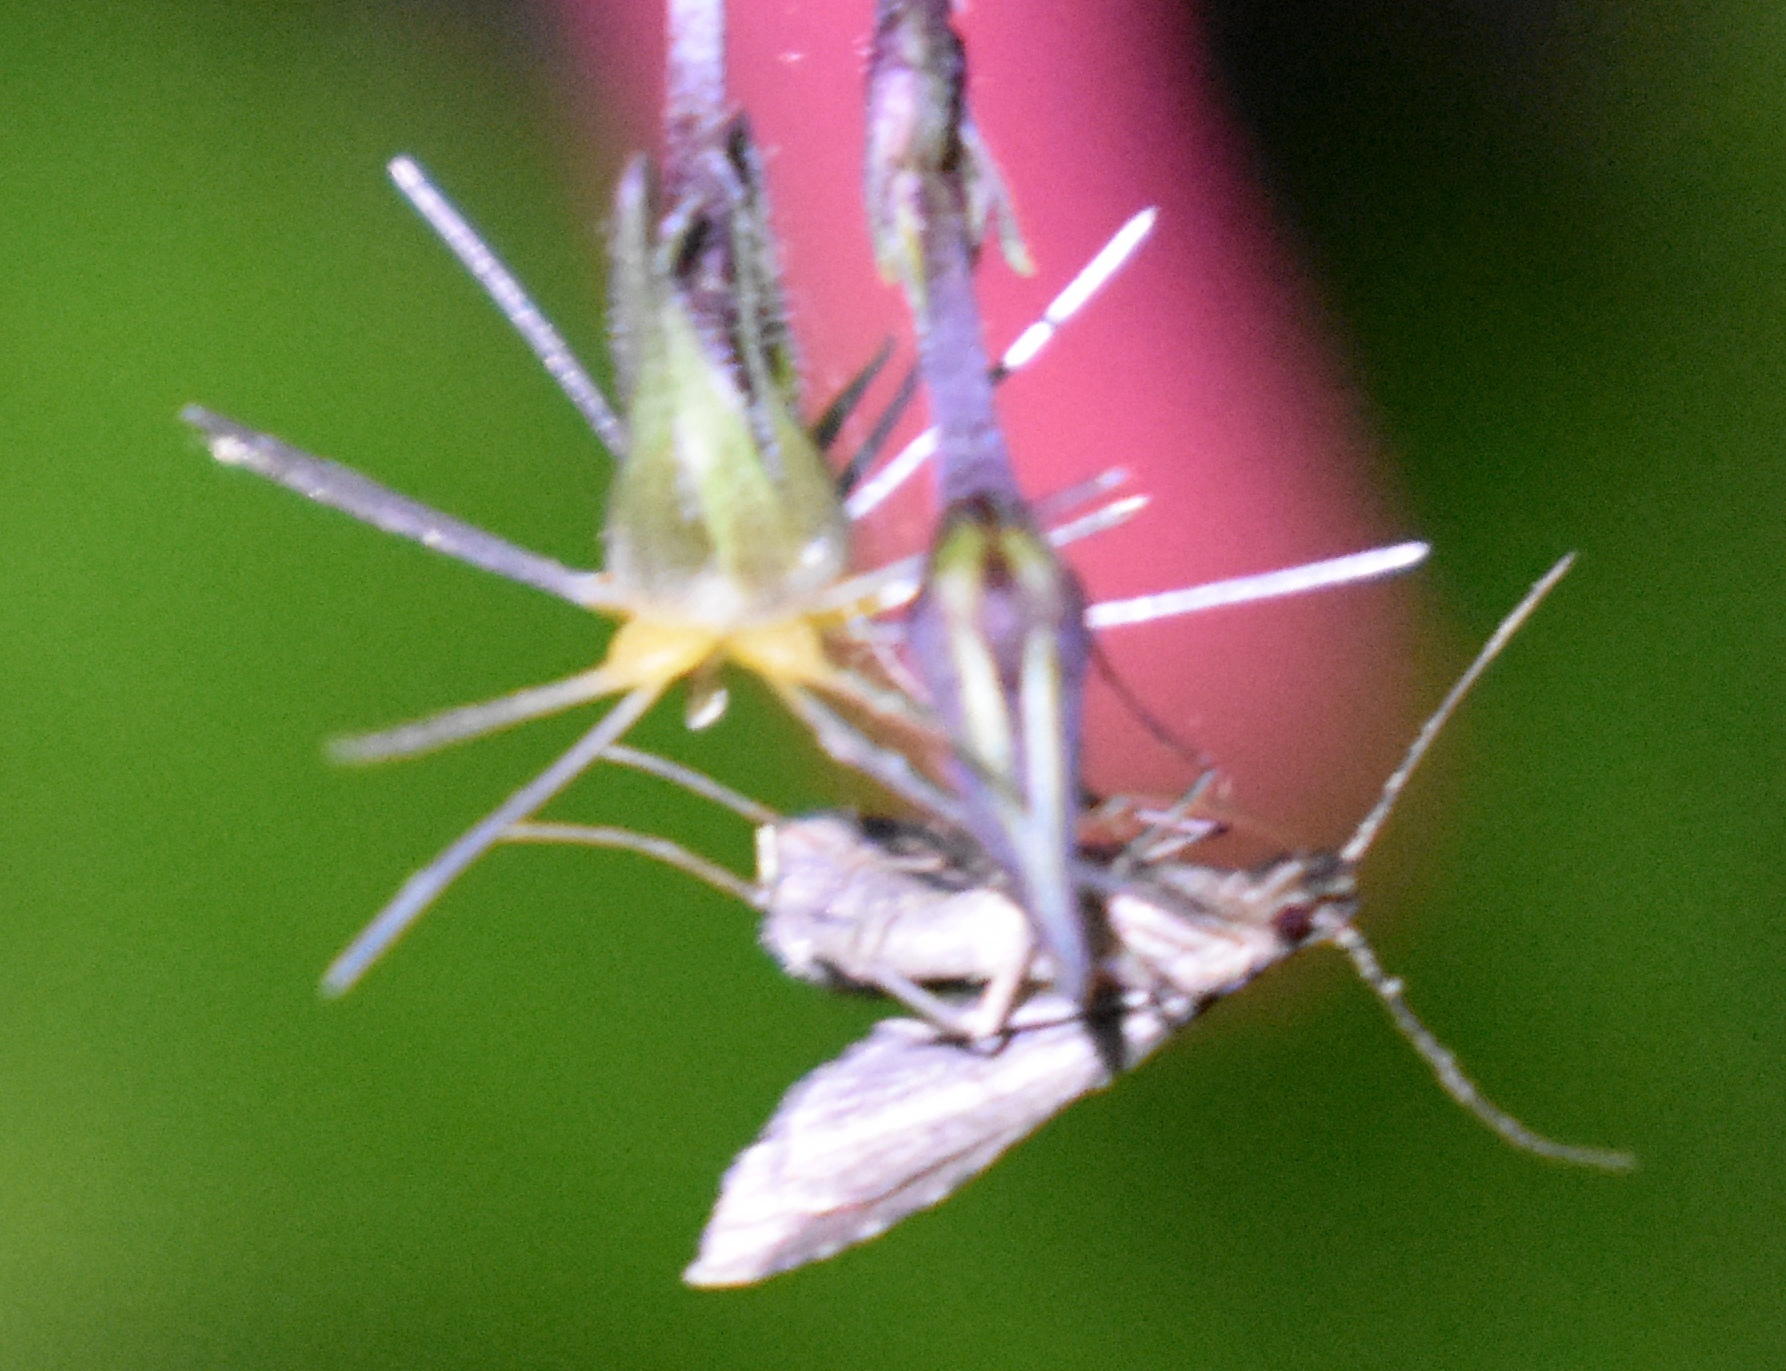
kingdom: Animalia
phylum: Arthropoda
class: Insecta
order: Lepidoptera
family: Erebidae
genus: Pseudoschrankia
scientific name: Pseudoschrankia brevipalpis
